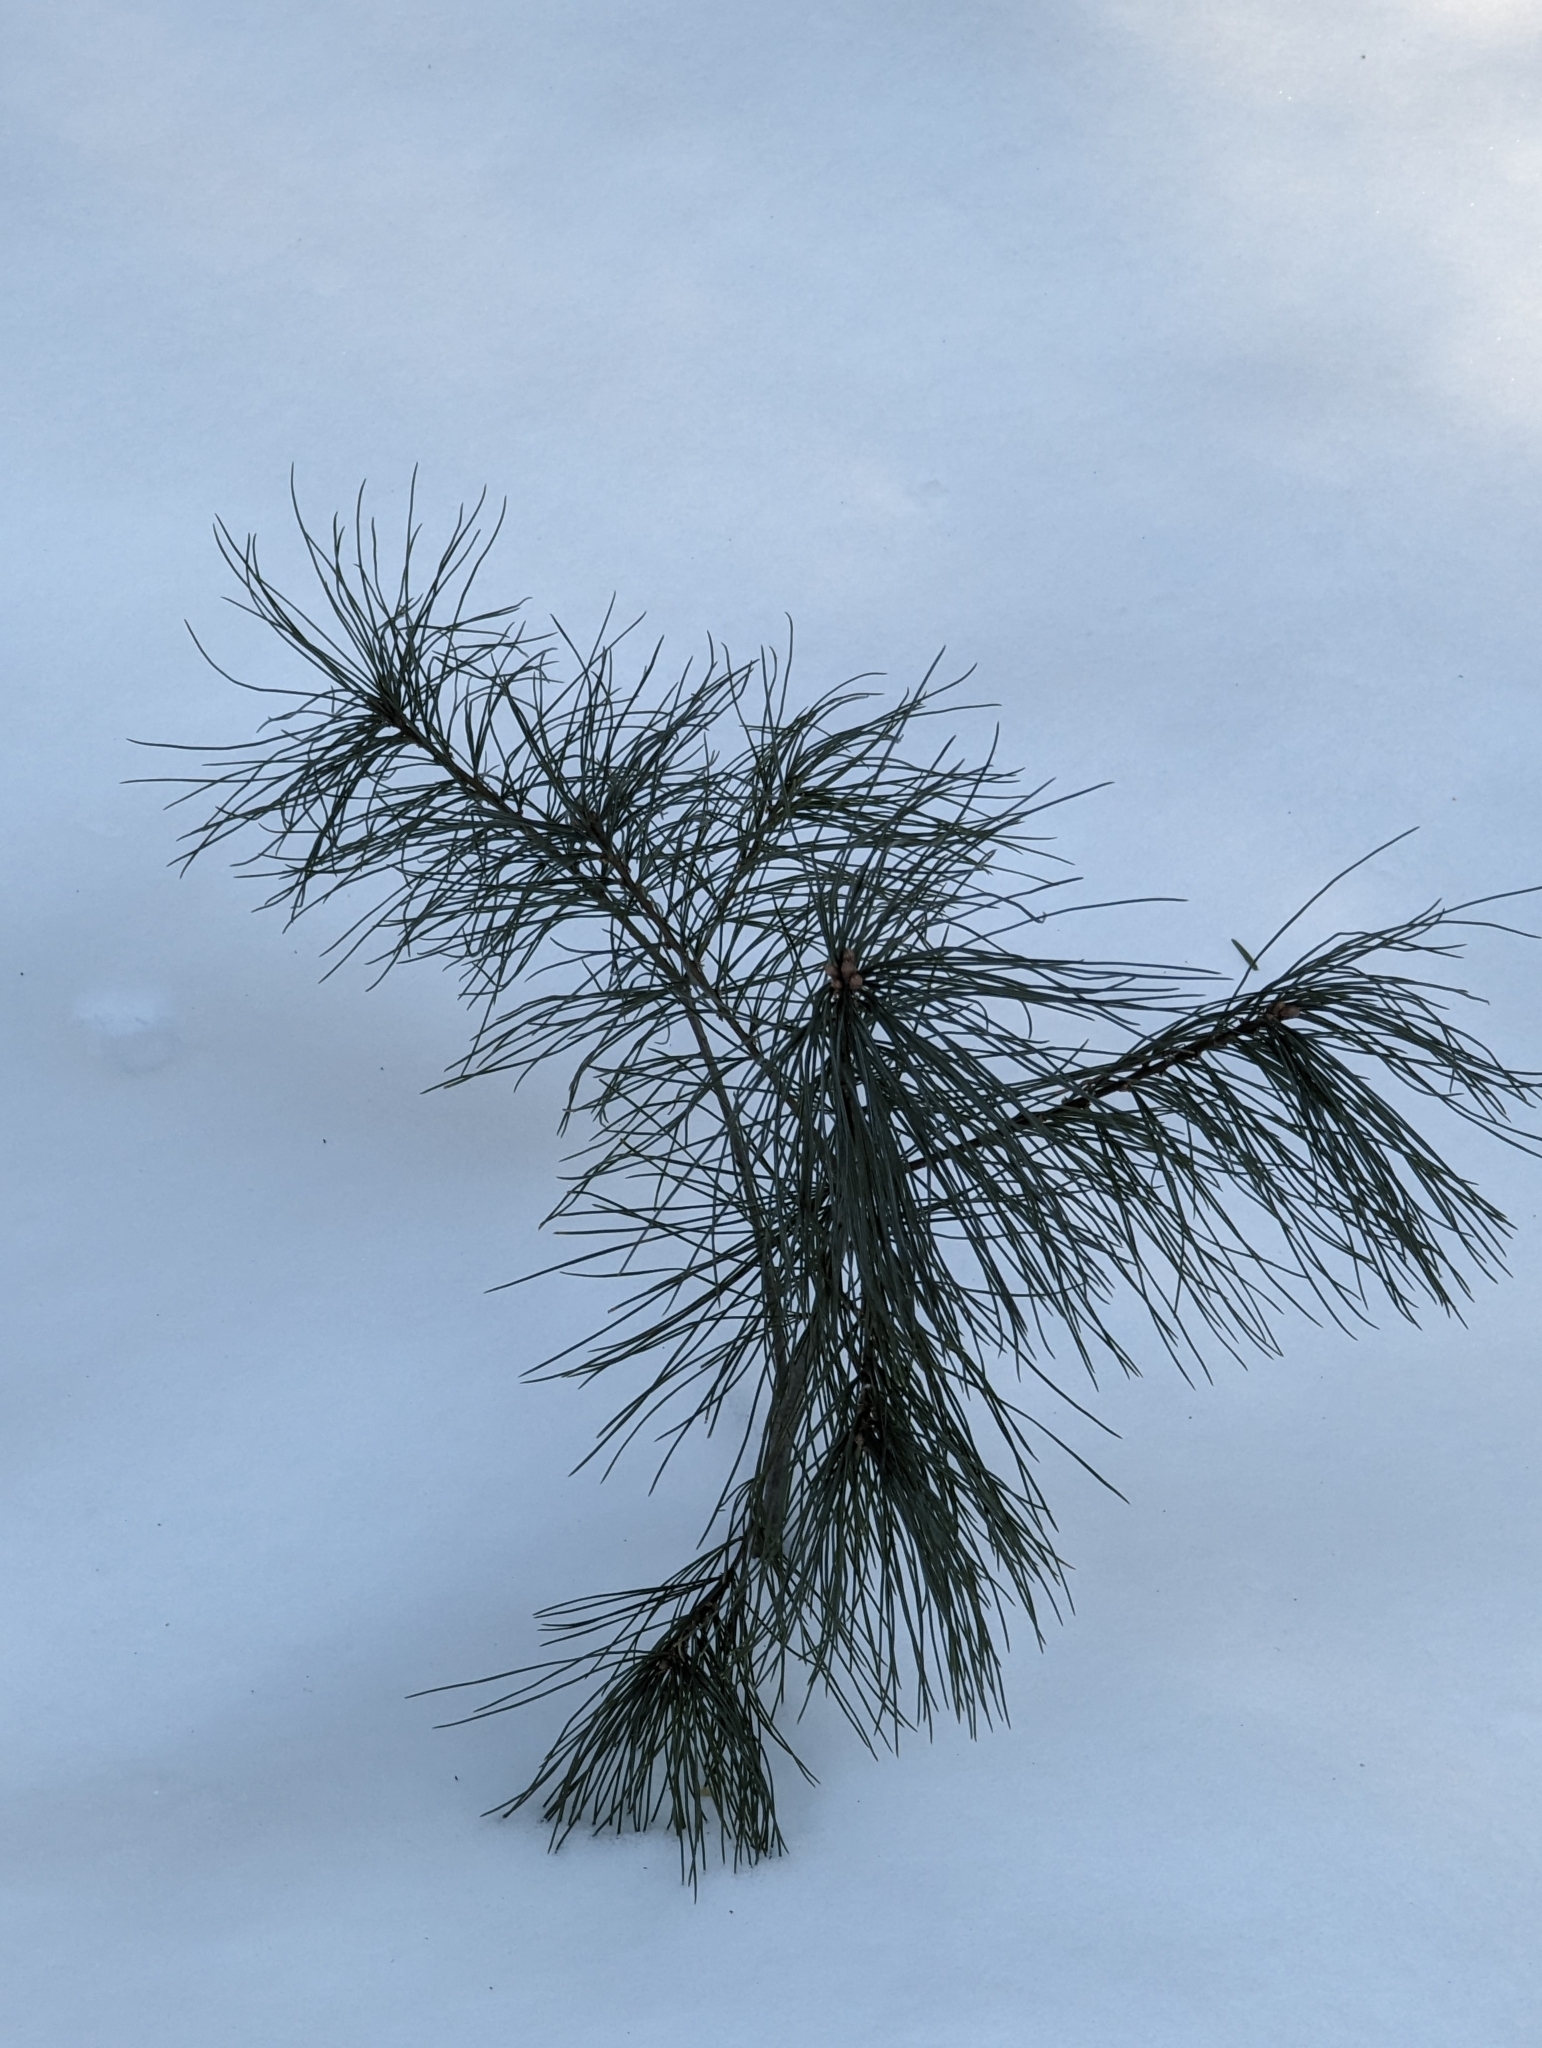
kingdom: Plantae
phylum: Tracheophyta
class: Pinopsida
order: Pinales
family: Pinaceae
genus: Pinus
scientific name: Pinus strobus
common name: Weymouth pine
